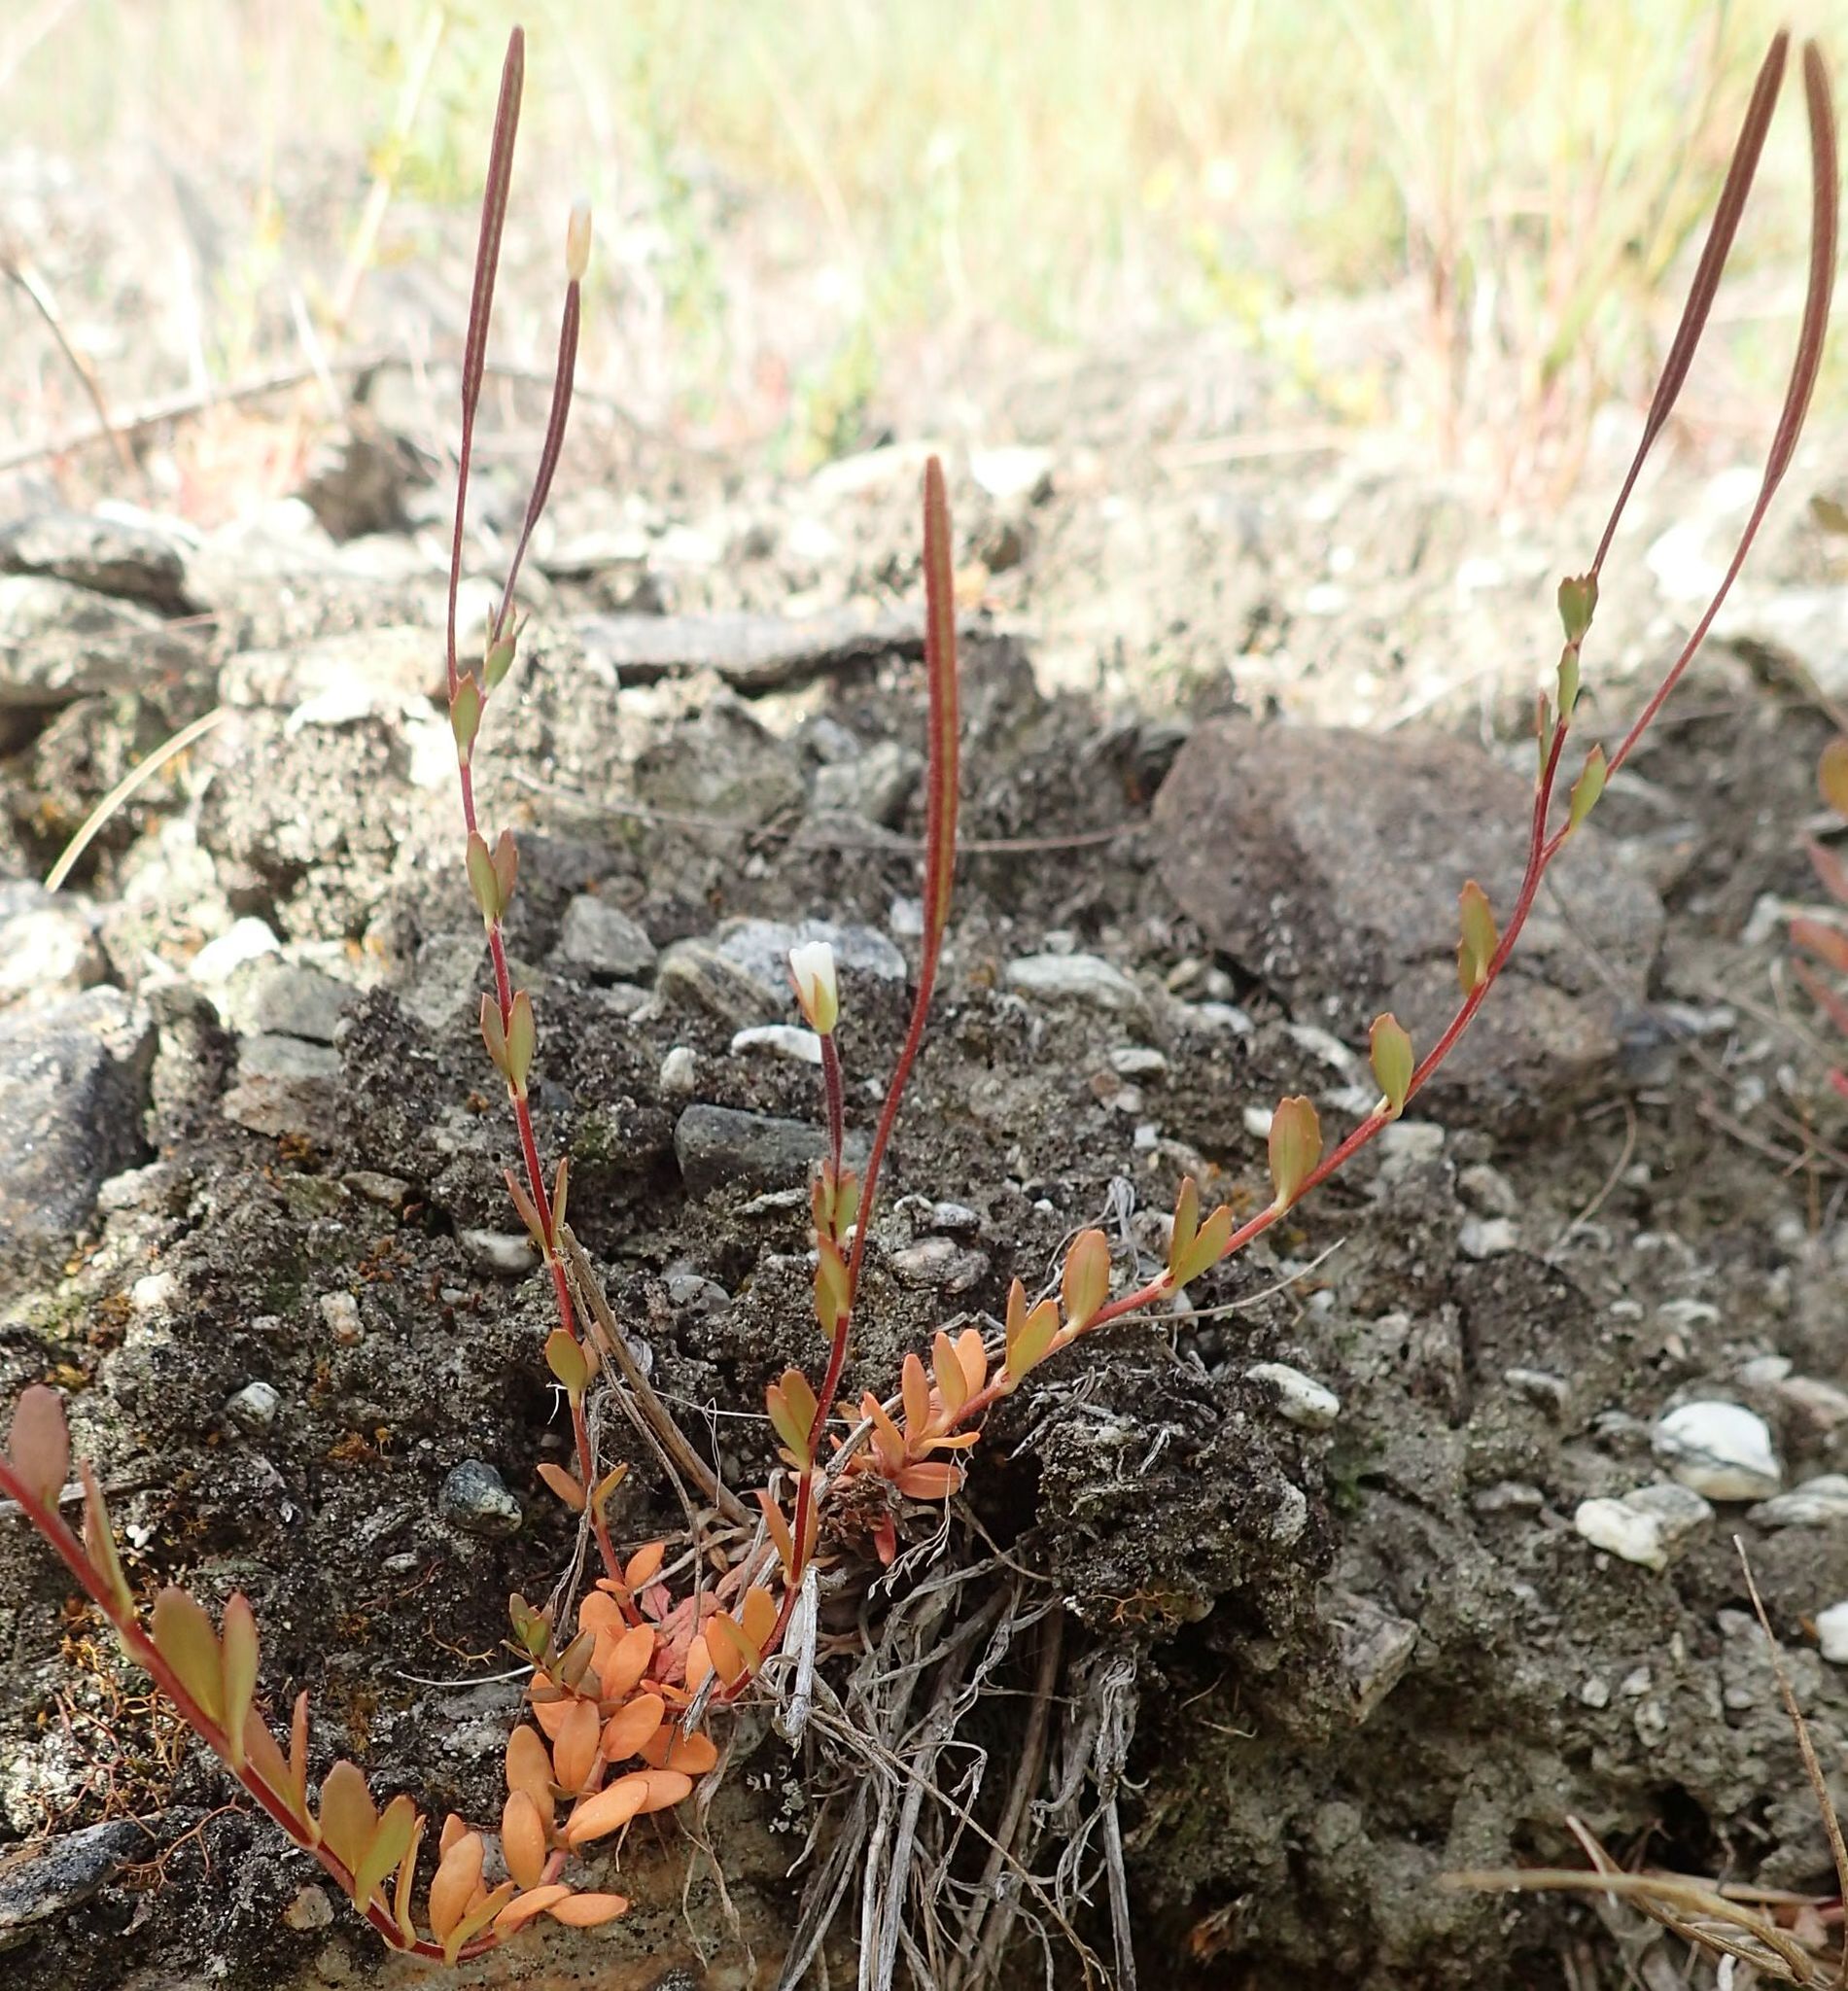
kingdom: Plantae
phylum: Tracheophyta
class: Magnoliopsida
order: Myrtales
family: Onagraceae
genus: Epilobium
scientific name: Epilobium alsinoides
